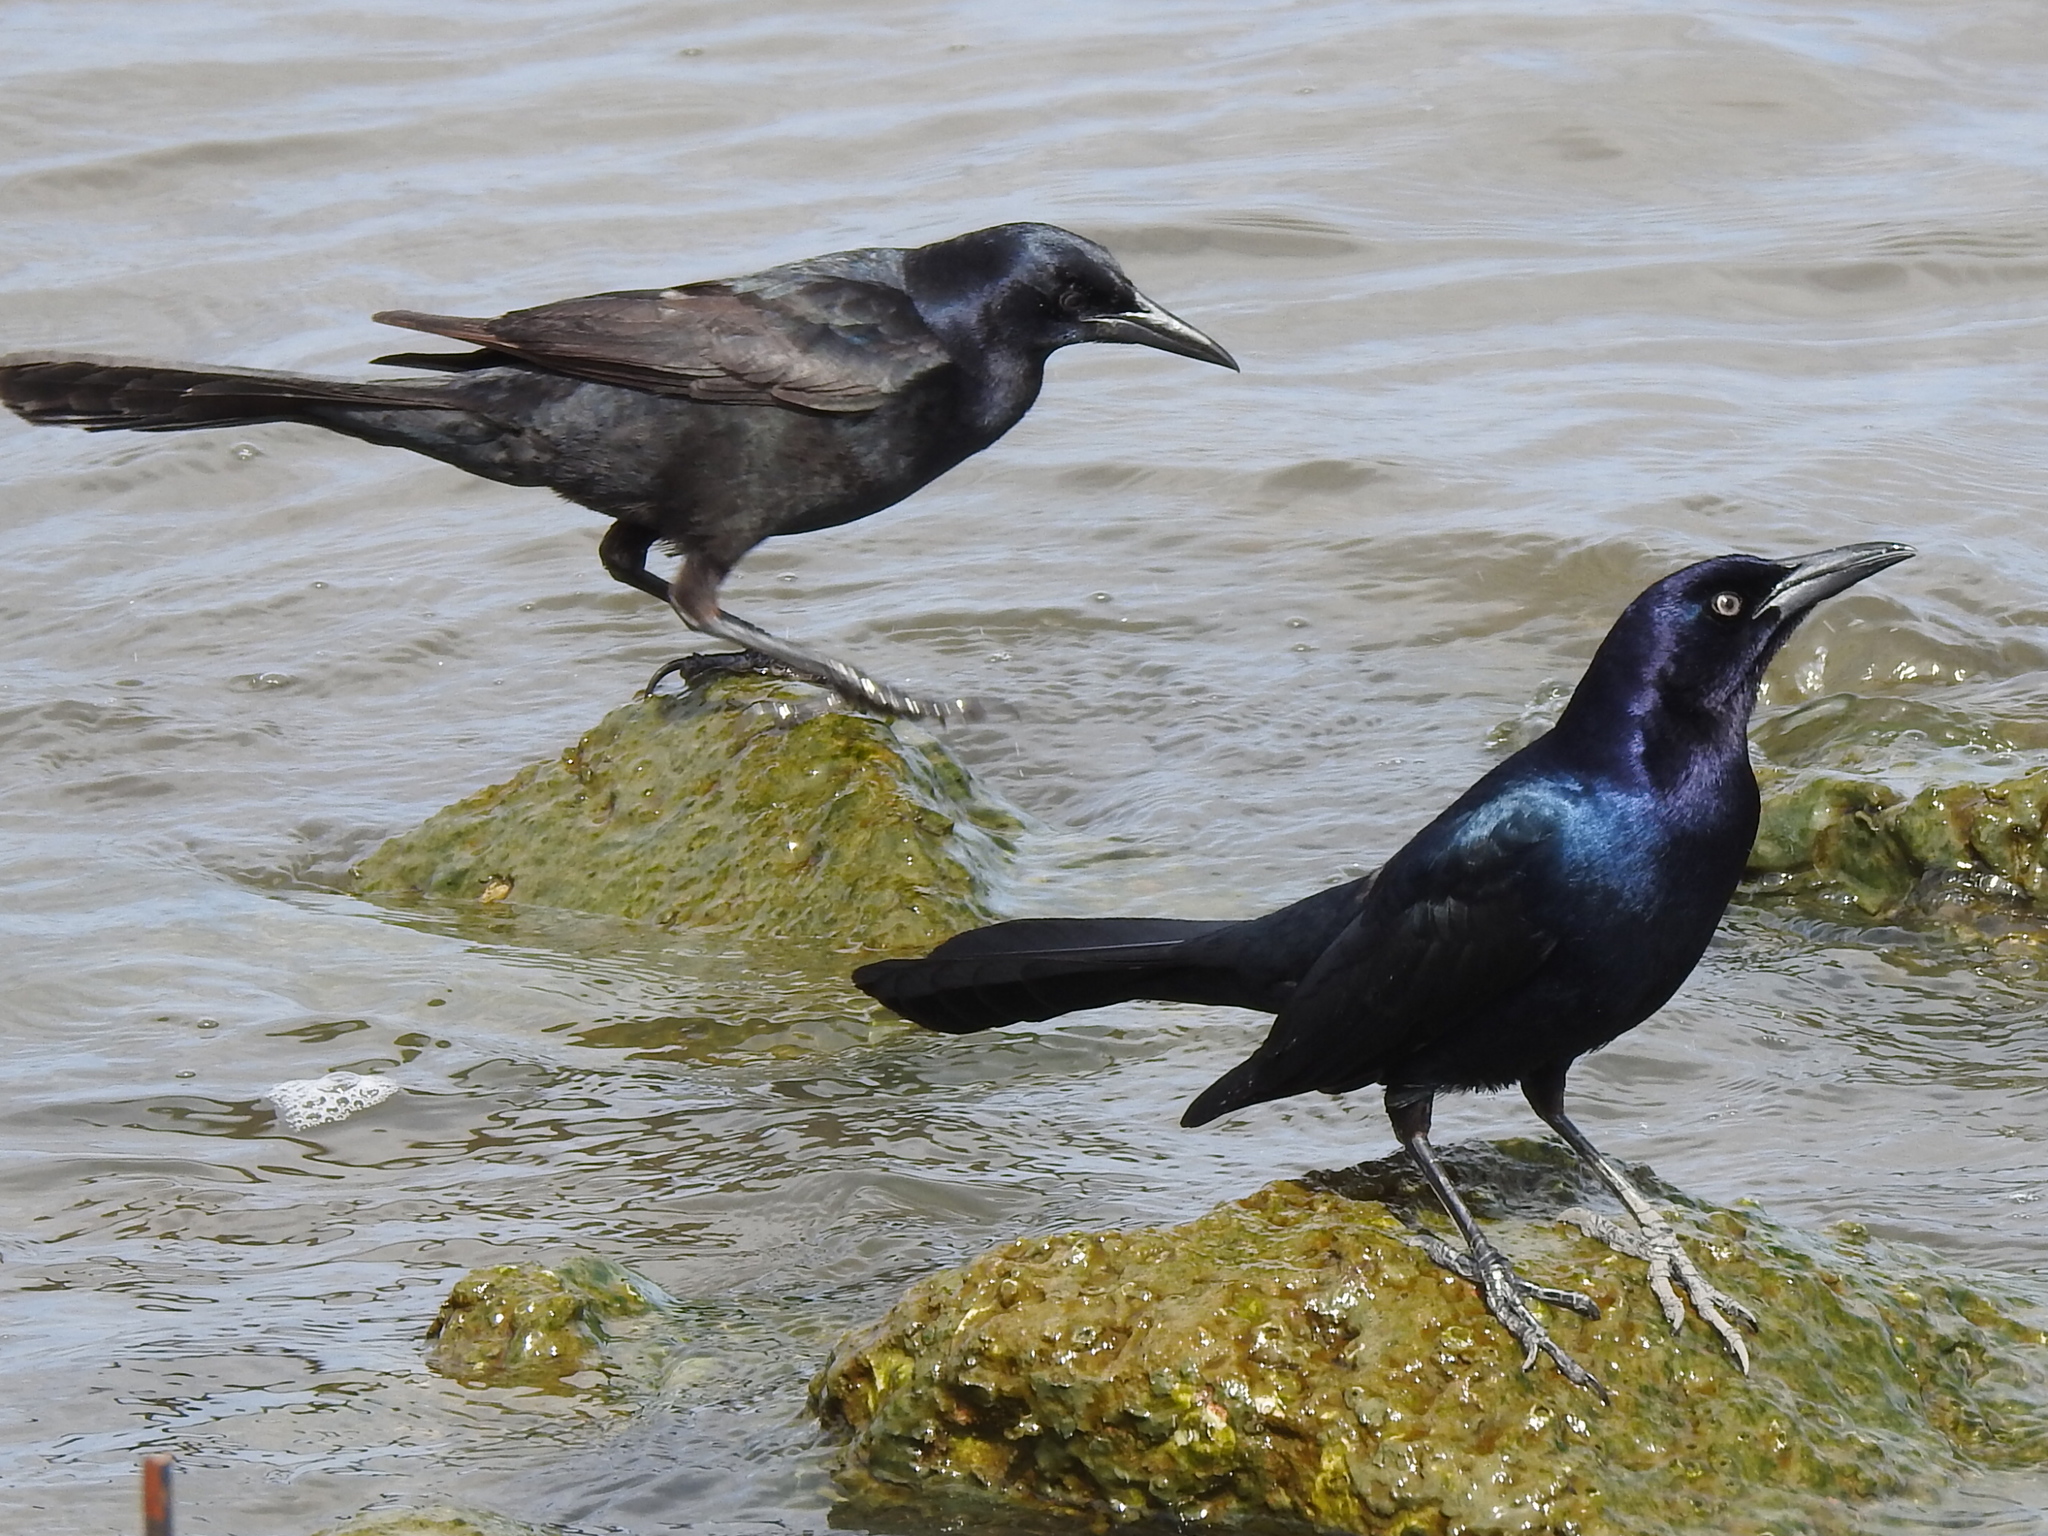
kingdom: Animalia
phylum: Chordata
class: Aves
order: Passeriformes
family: Icteridae
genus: Quiscalus
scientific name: Quiscalus major
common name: Boat-tailed grackle
